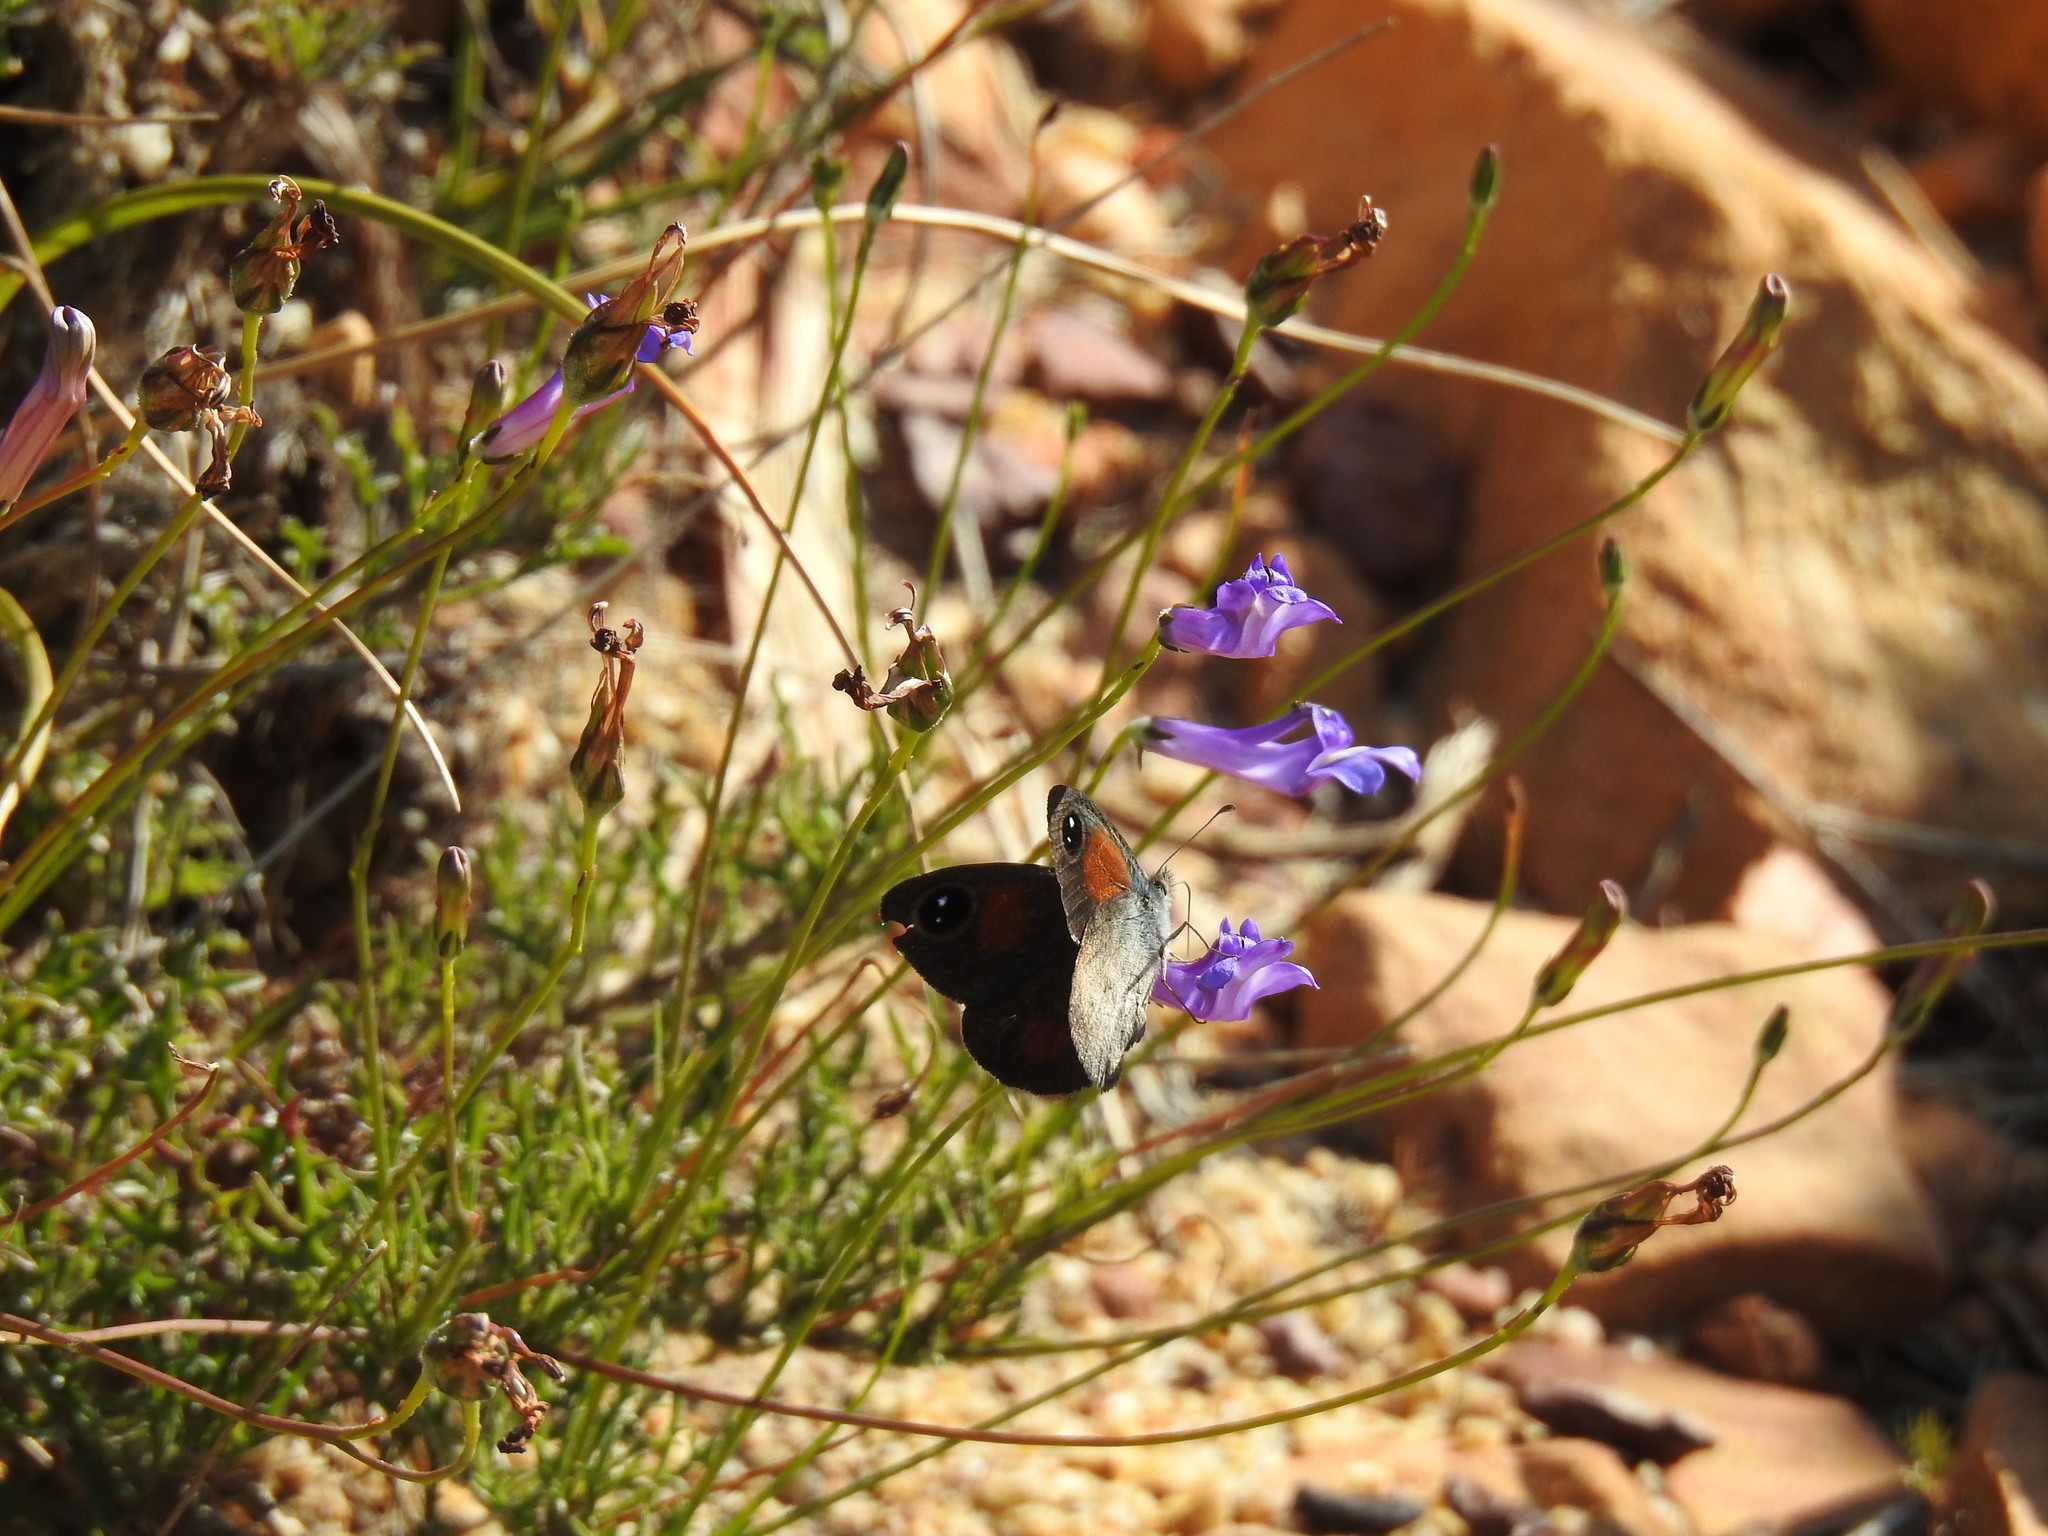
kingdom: Animalia
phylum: Arthropoda
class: Insecta
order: Lepidoptera
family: Nymphalidae
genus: Stygionympha
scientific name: Stygionympha vigilans
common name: Western hillside brown
